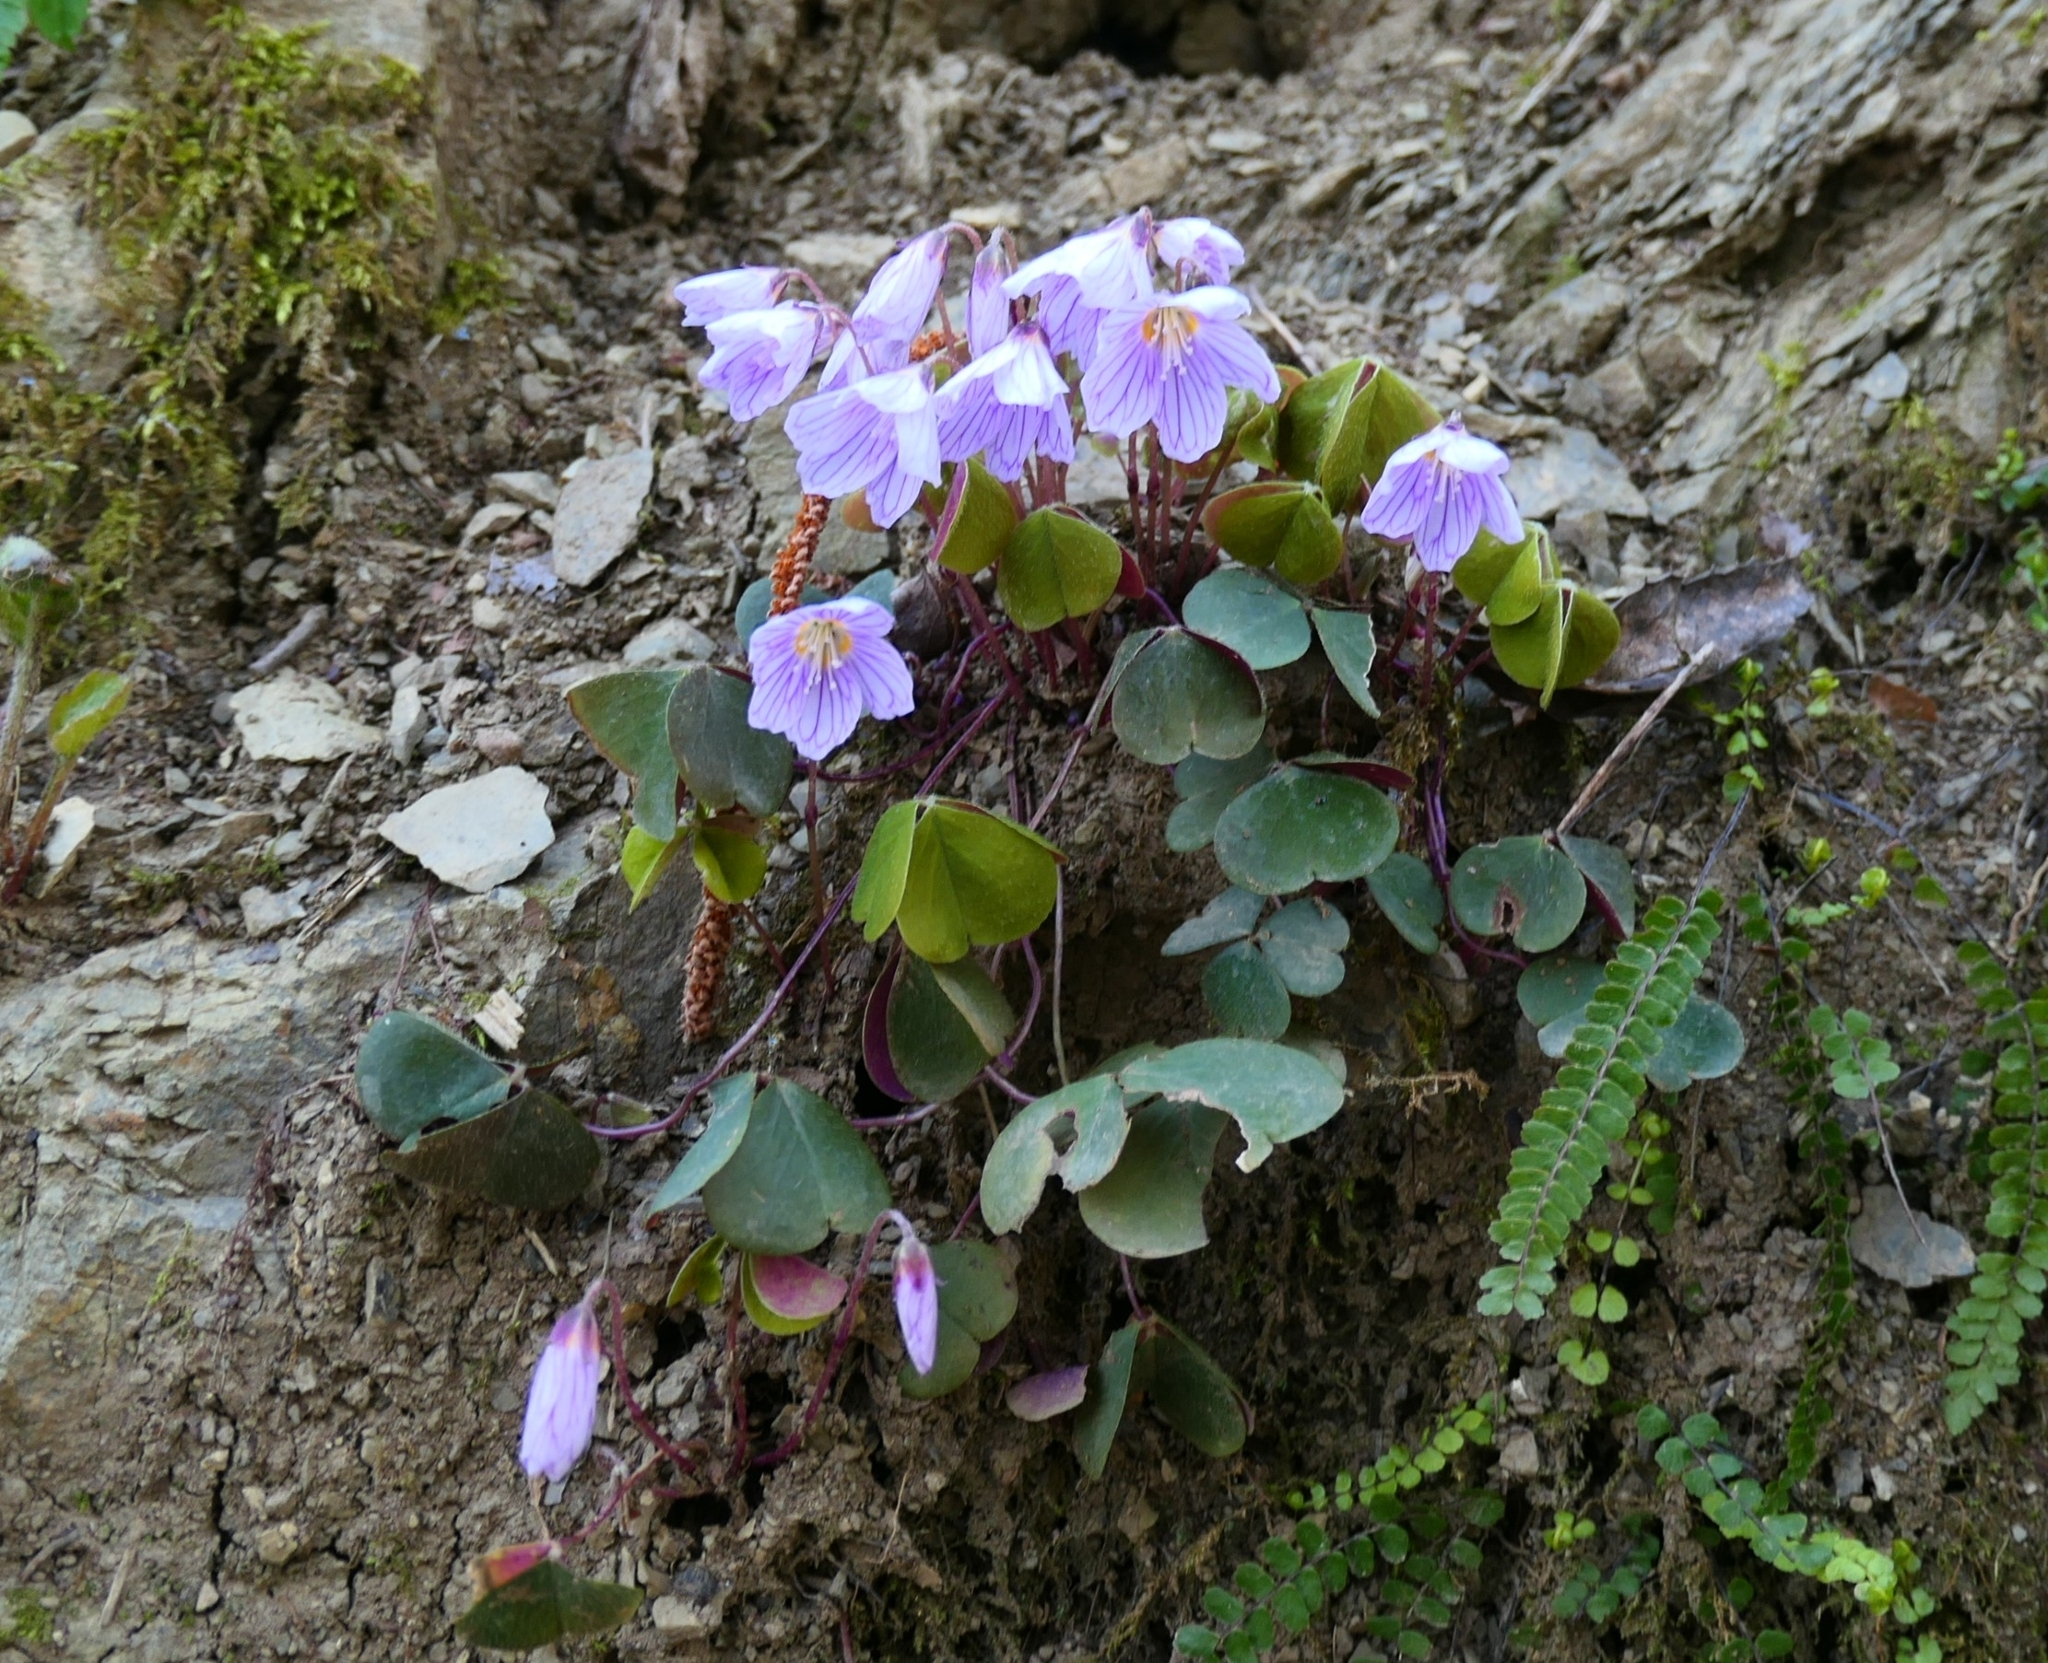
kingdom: Plantae
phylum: Tracheophyta
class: Magnoliopsida
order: Oxalidales
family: Oxalidaceae
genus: Oxalis
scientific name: Oxalis acetosella
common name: Wood-sorrel
